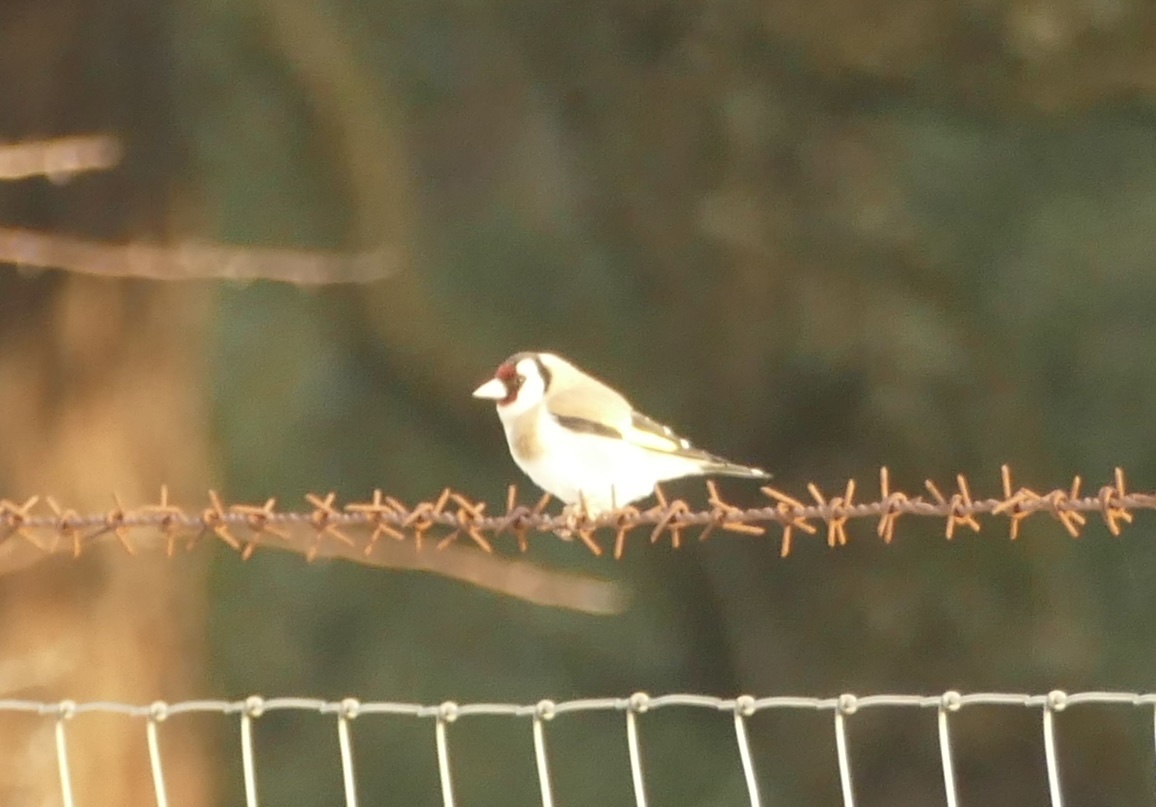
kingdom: Animalia
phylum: Chordata
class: Aves
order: Passeriformes
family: Fringillidae
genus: Carduelis
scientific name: Carduelis carduelis
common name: European goldfinch
